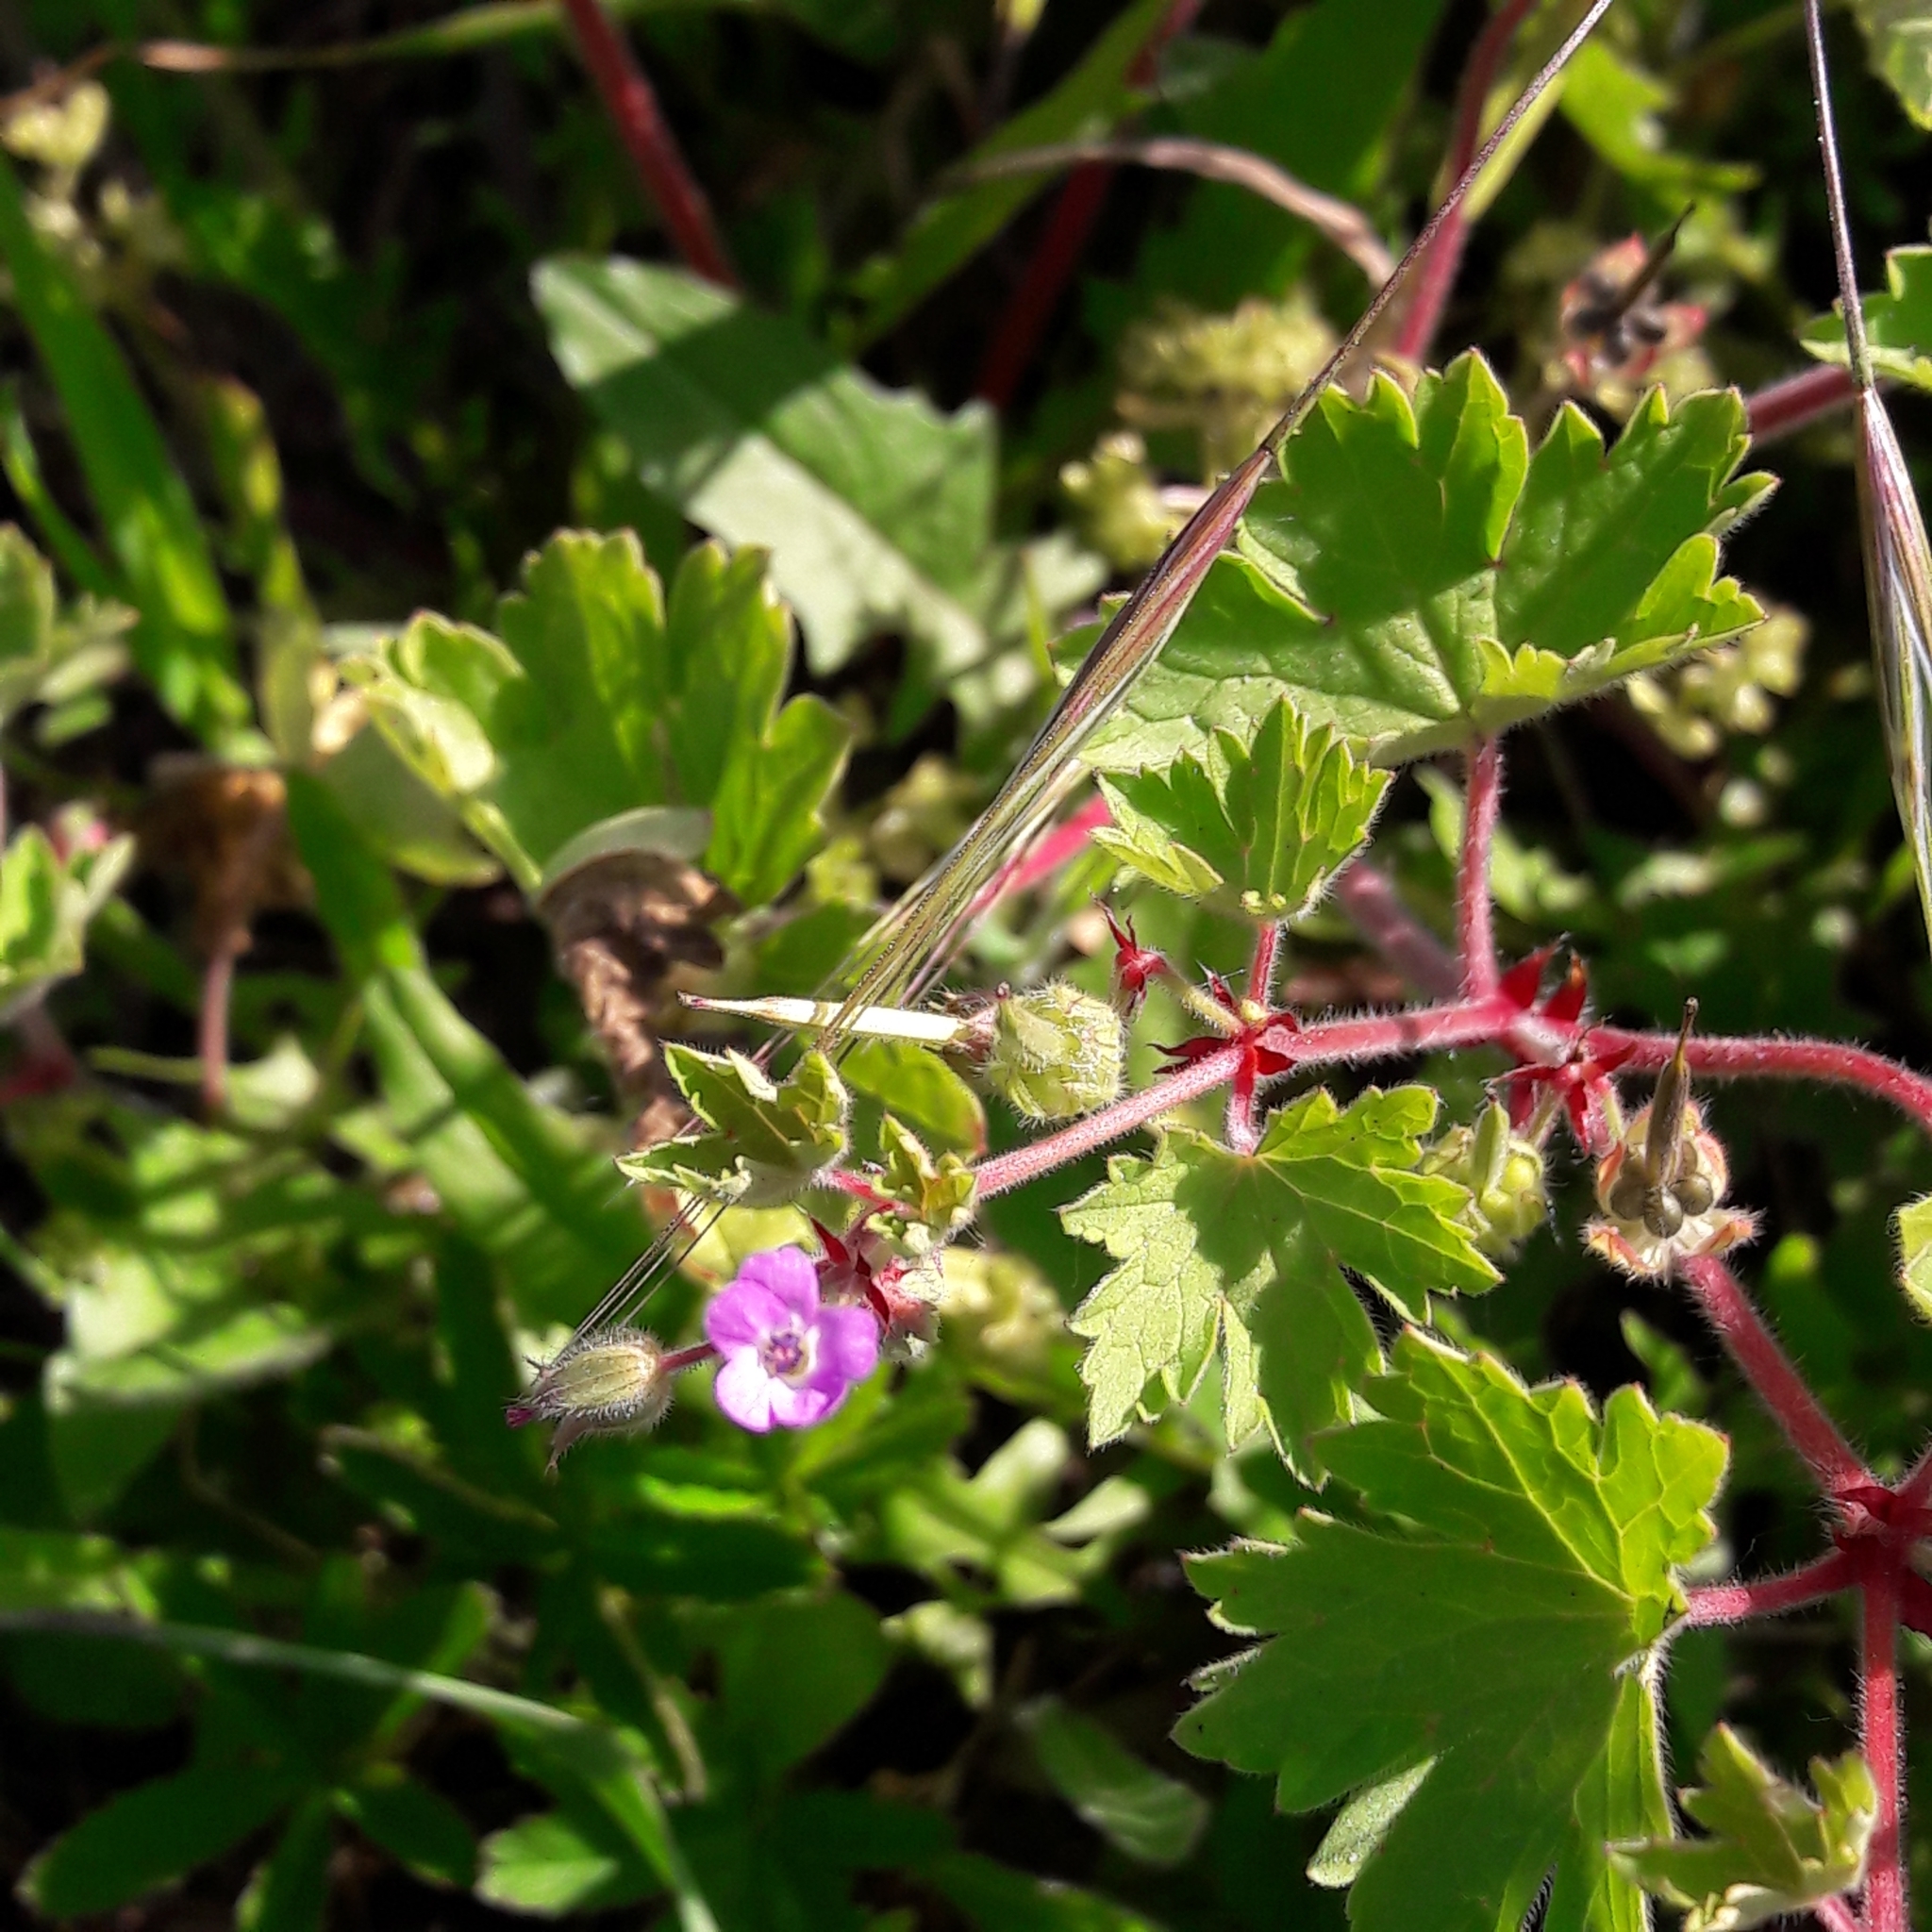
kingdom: Plantae
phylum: Tracheophyta
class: Magnoliopsida
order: Geraniales
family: Geraniaceae
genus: Geranium
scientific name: Geranium rotundifolium
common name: Round-leaved crane's-bill
